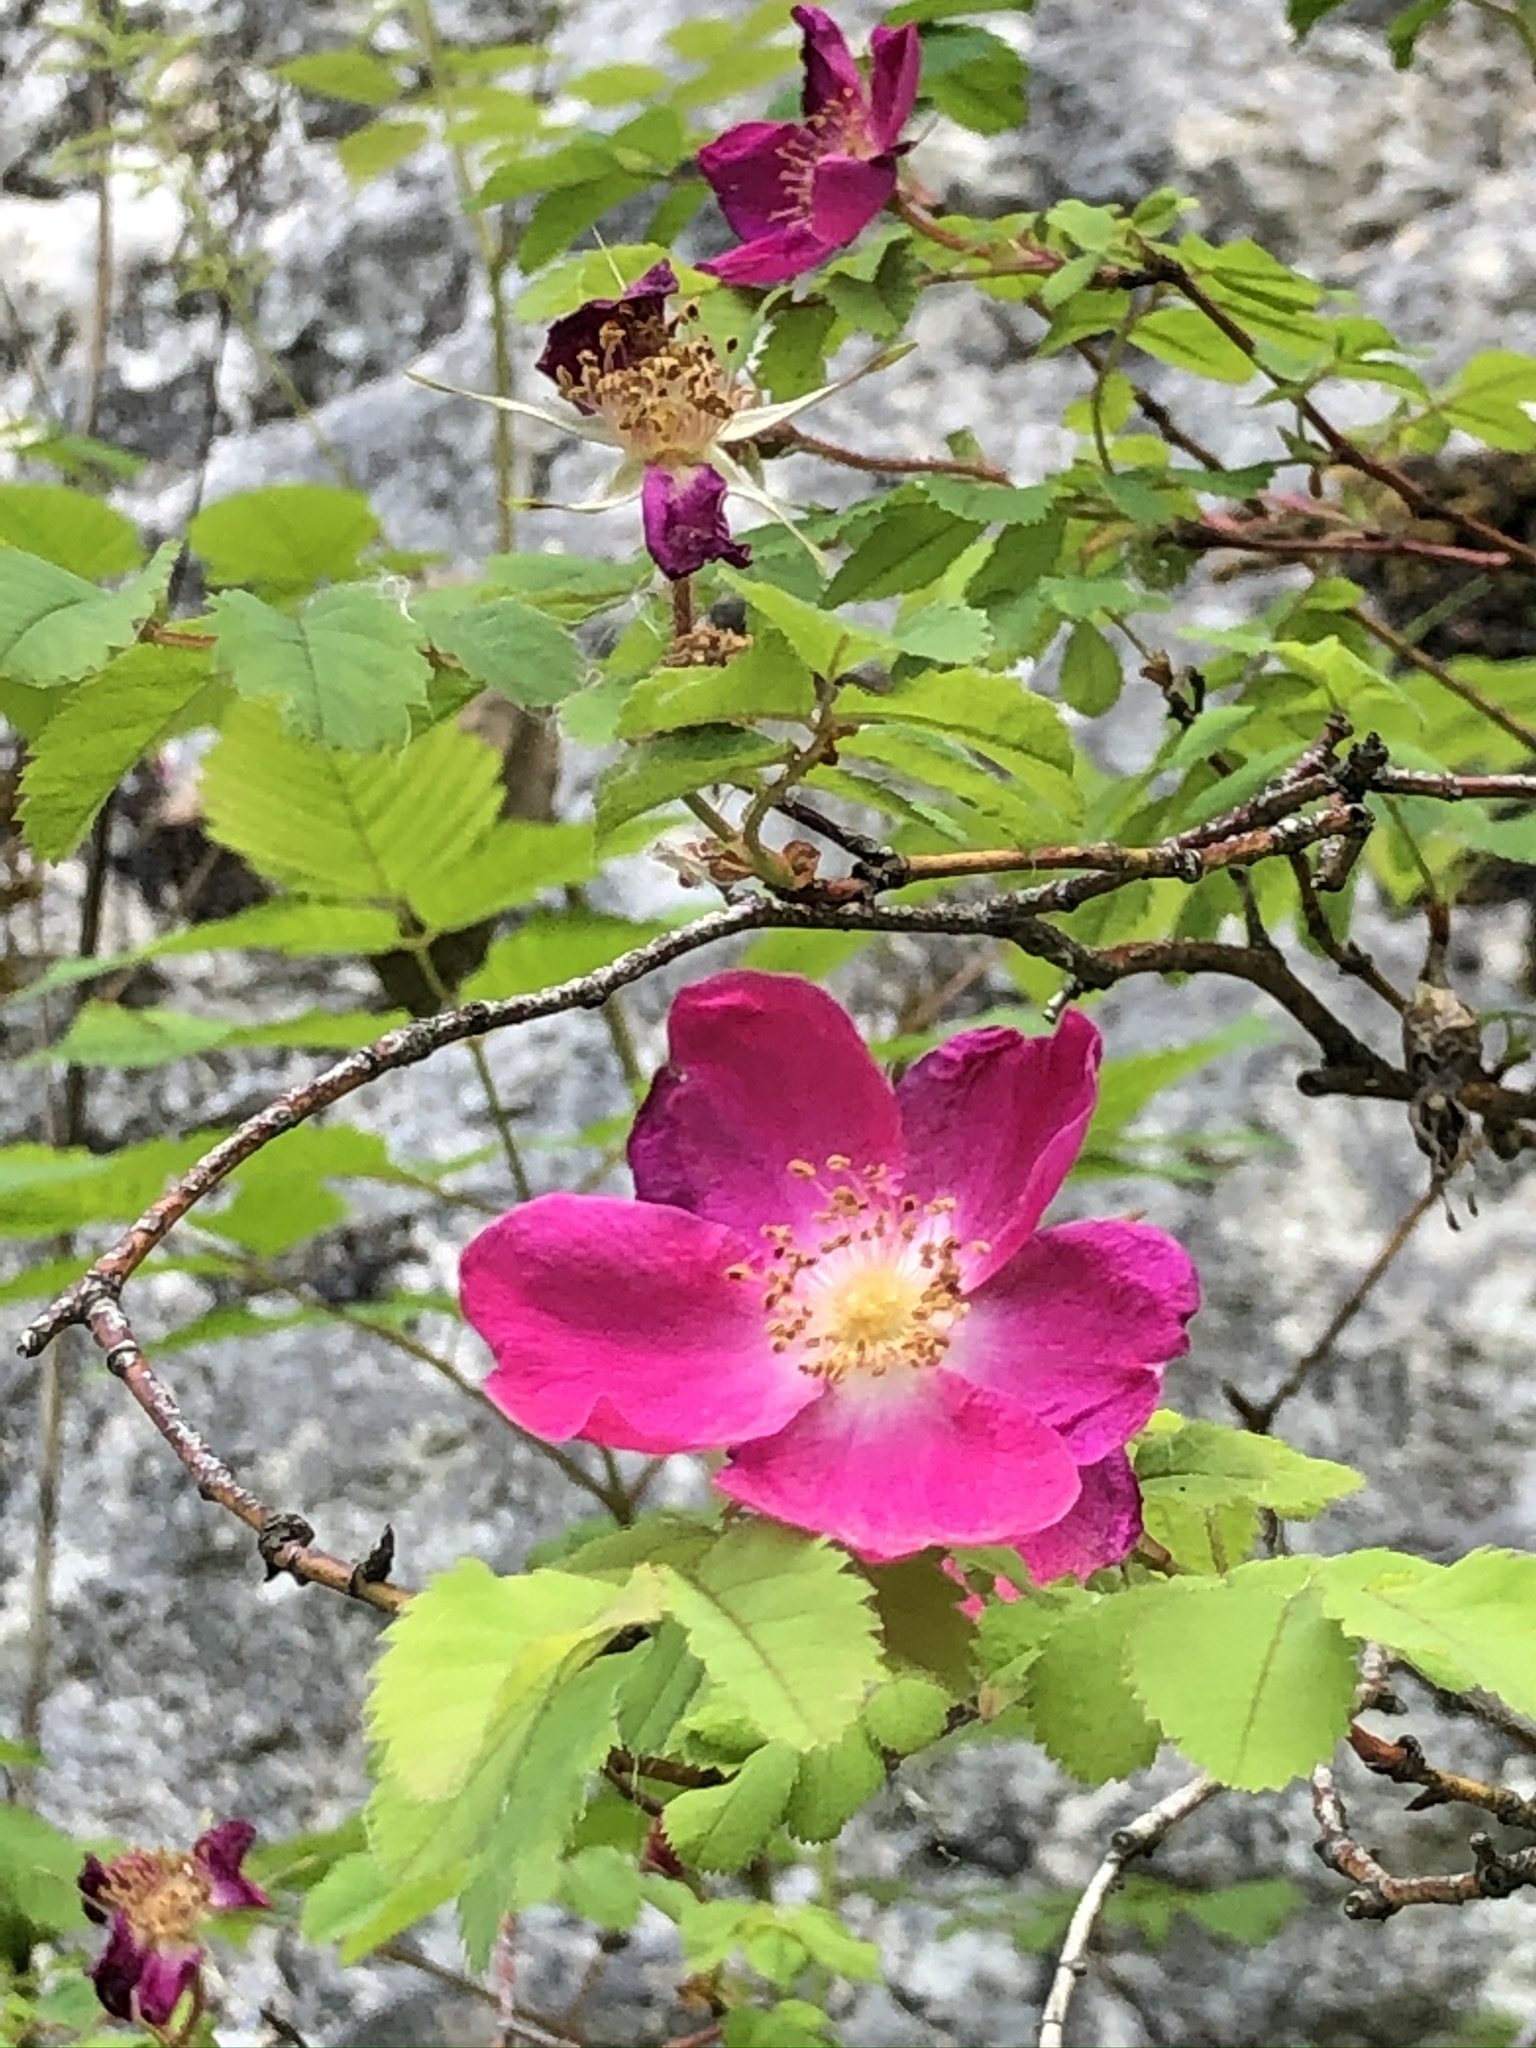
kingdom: Plantae
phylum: Tracheophyta
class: Magnoliopsida
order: Rosales
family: Rosaceae
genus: Rosa
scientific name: Rosa pendulina
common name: Alpine rose
